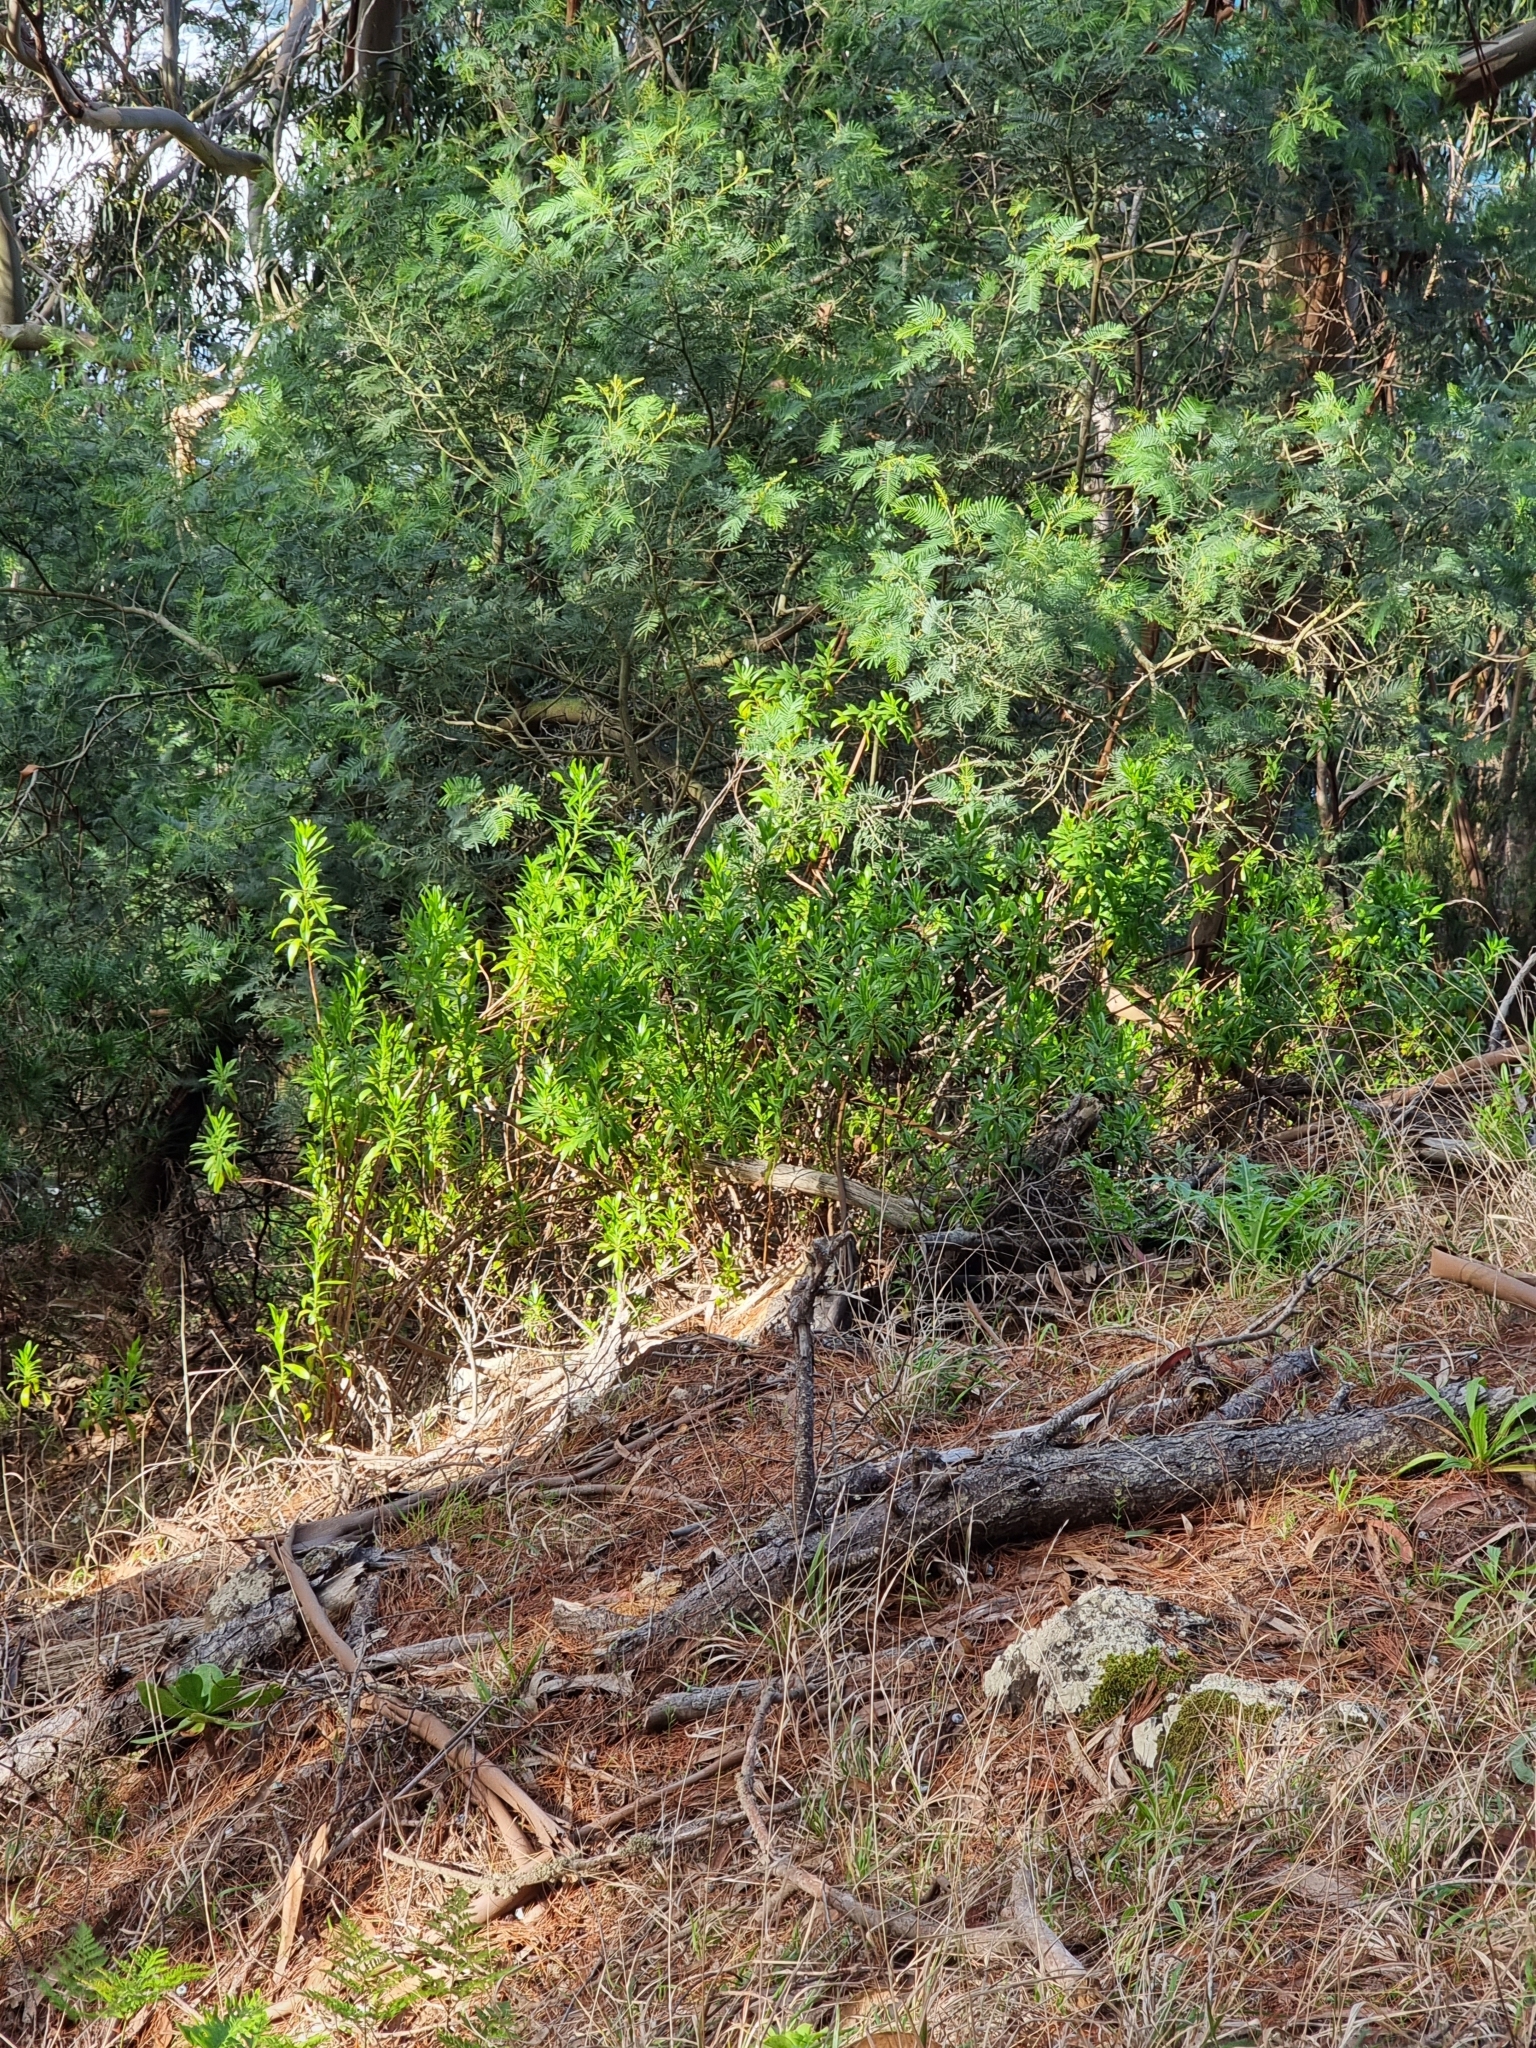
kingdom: Plantae
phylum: Tracheophyta
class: Magnoliopsida
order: Lamiales
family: Plantaginaceae
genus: Globularia
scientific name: Globularia salicina
